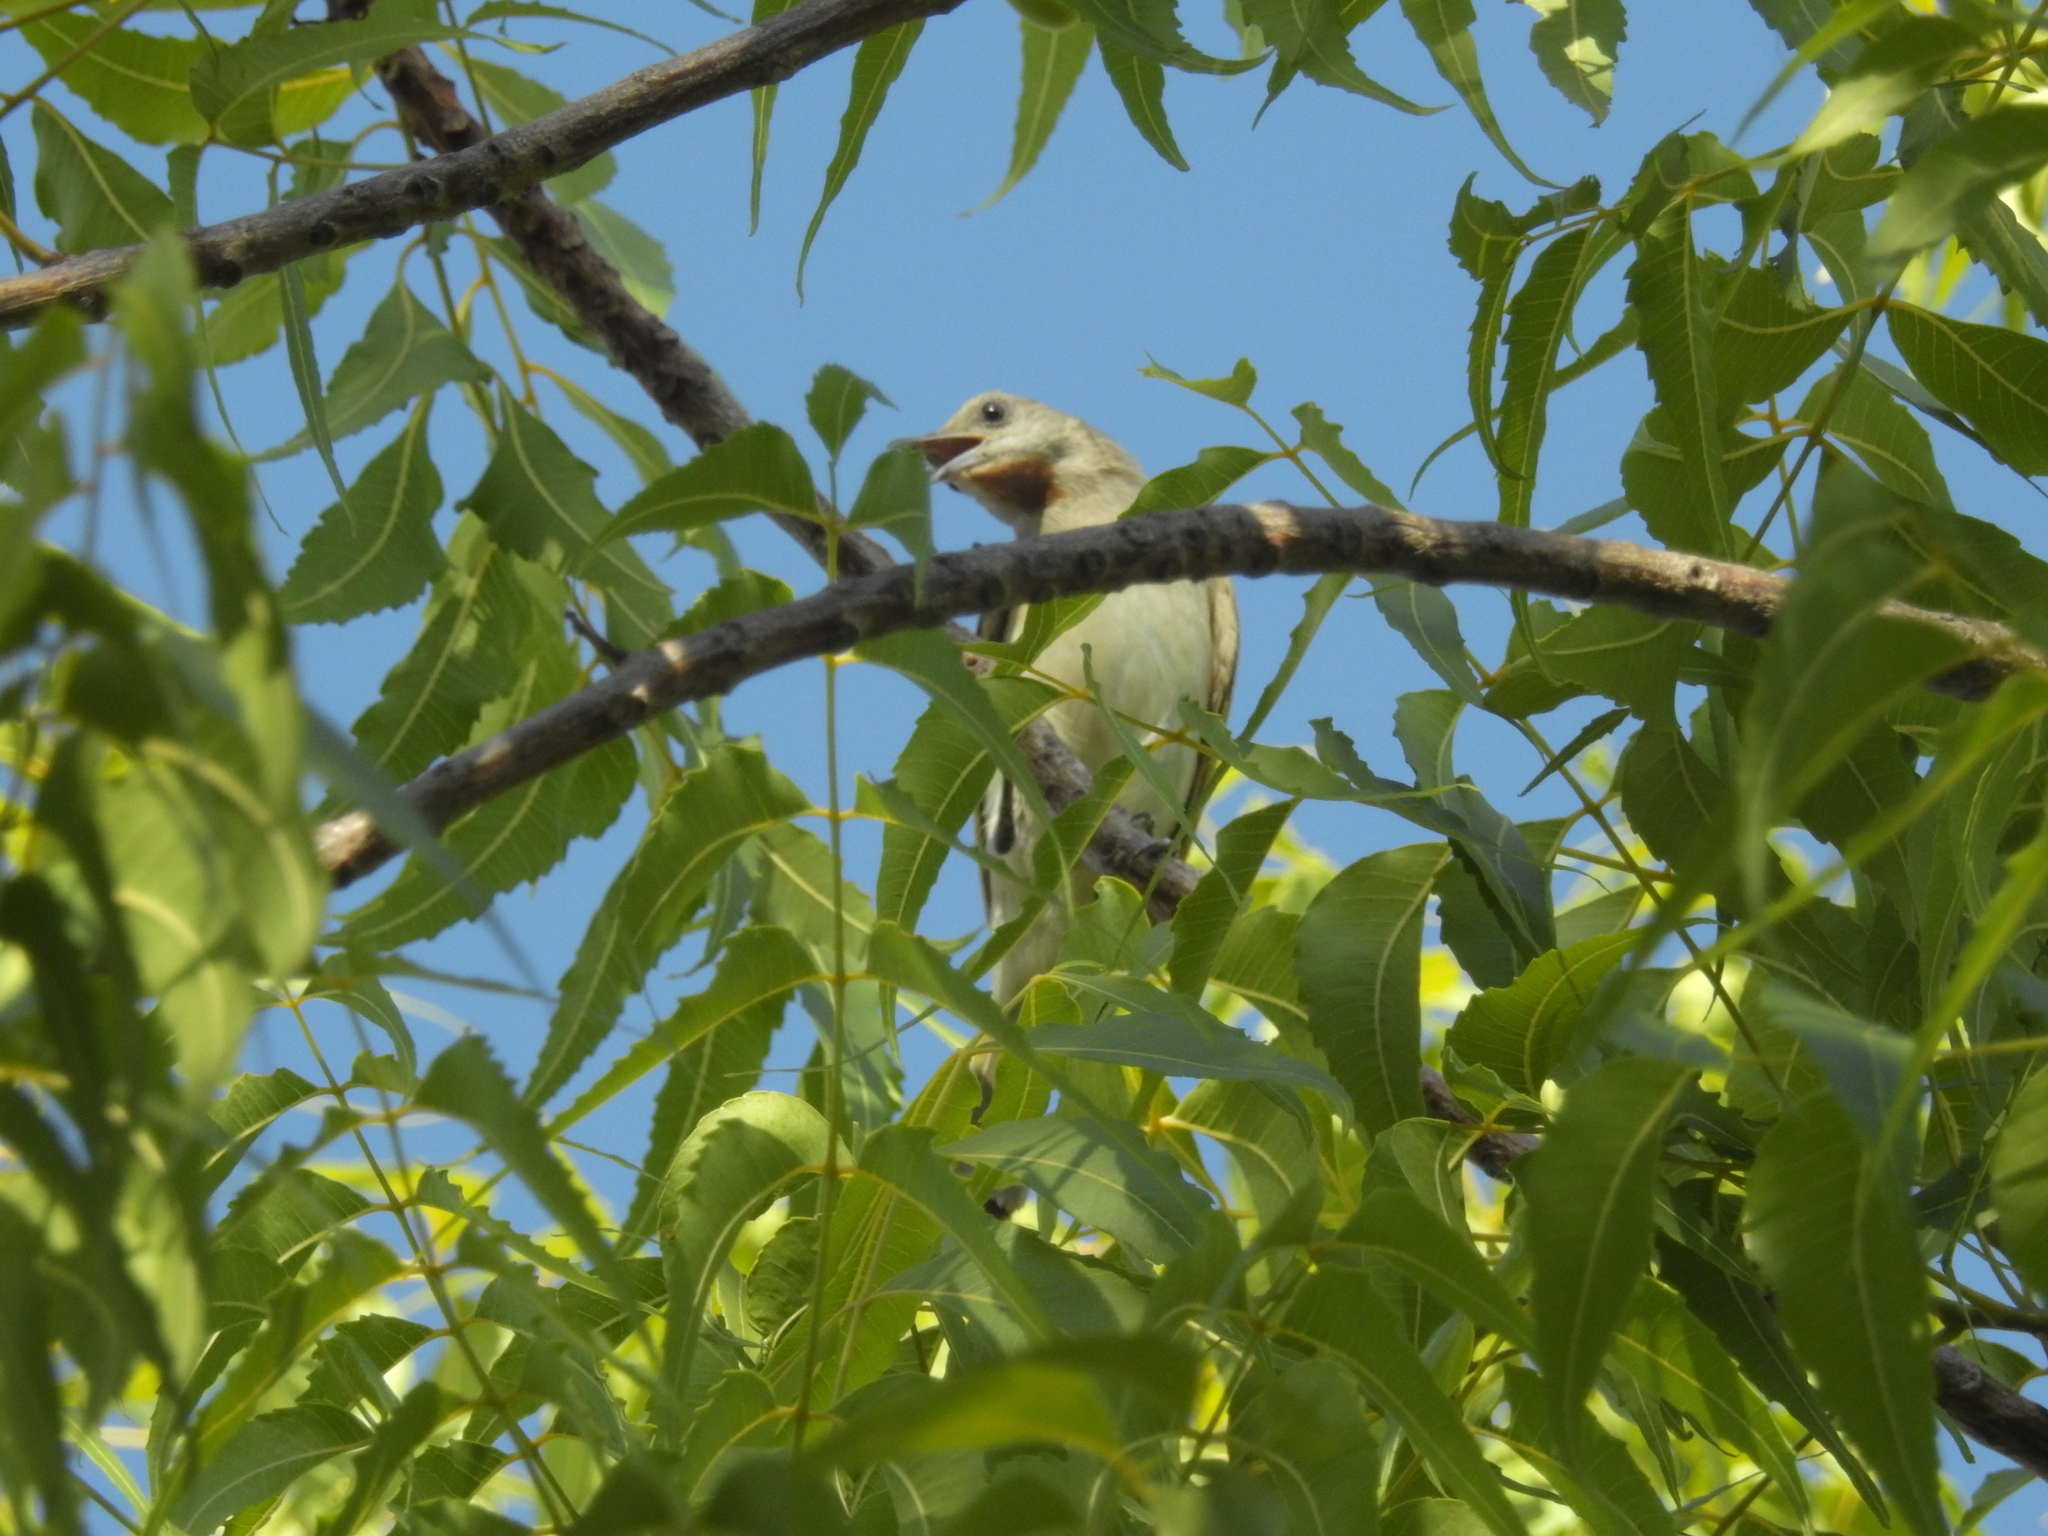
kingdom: Animalia
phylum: Chordata
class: Aves
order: Passeriformes
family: Meliphagidae
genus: Conopophila
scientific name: Conopophila rufogularis
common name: Rufous-throated honeyeater
